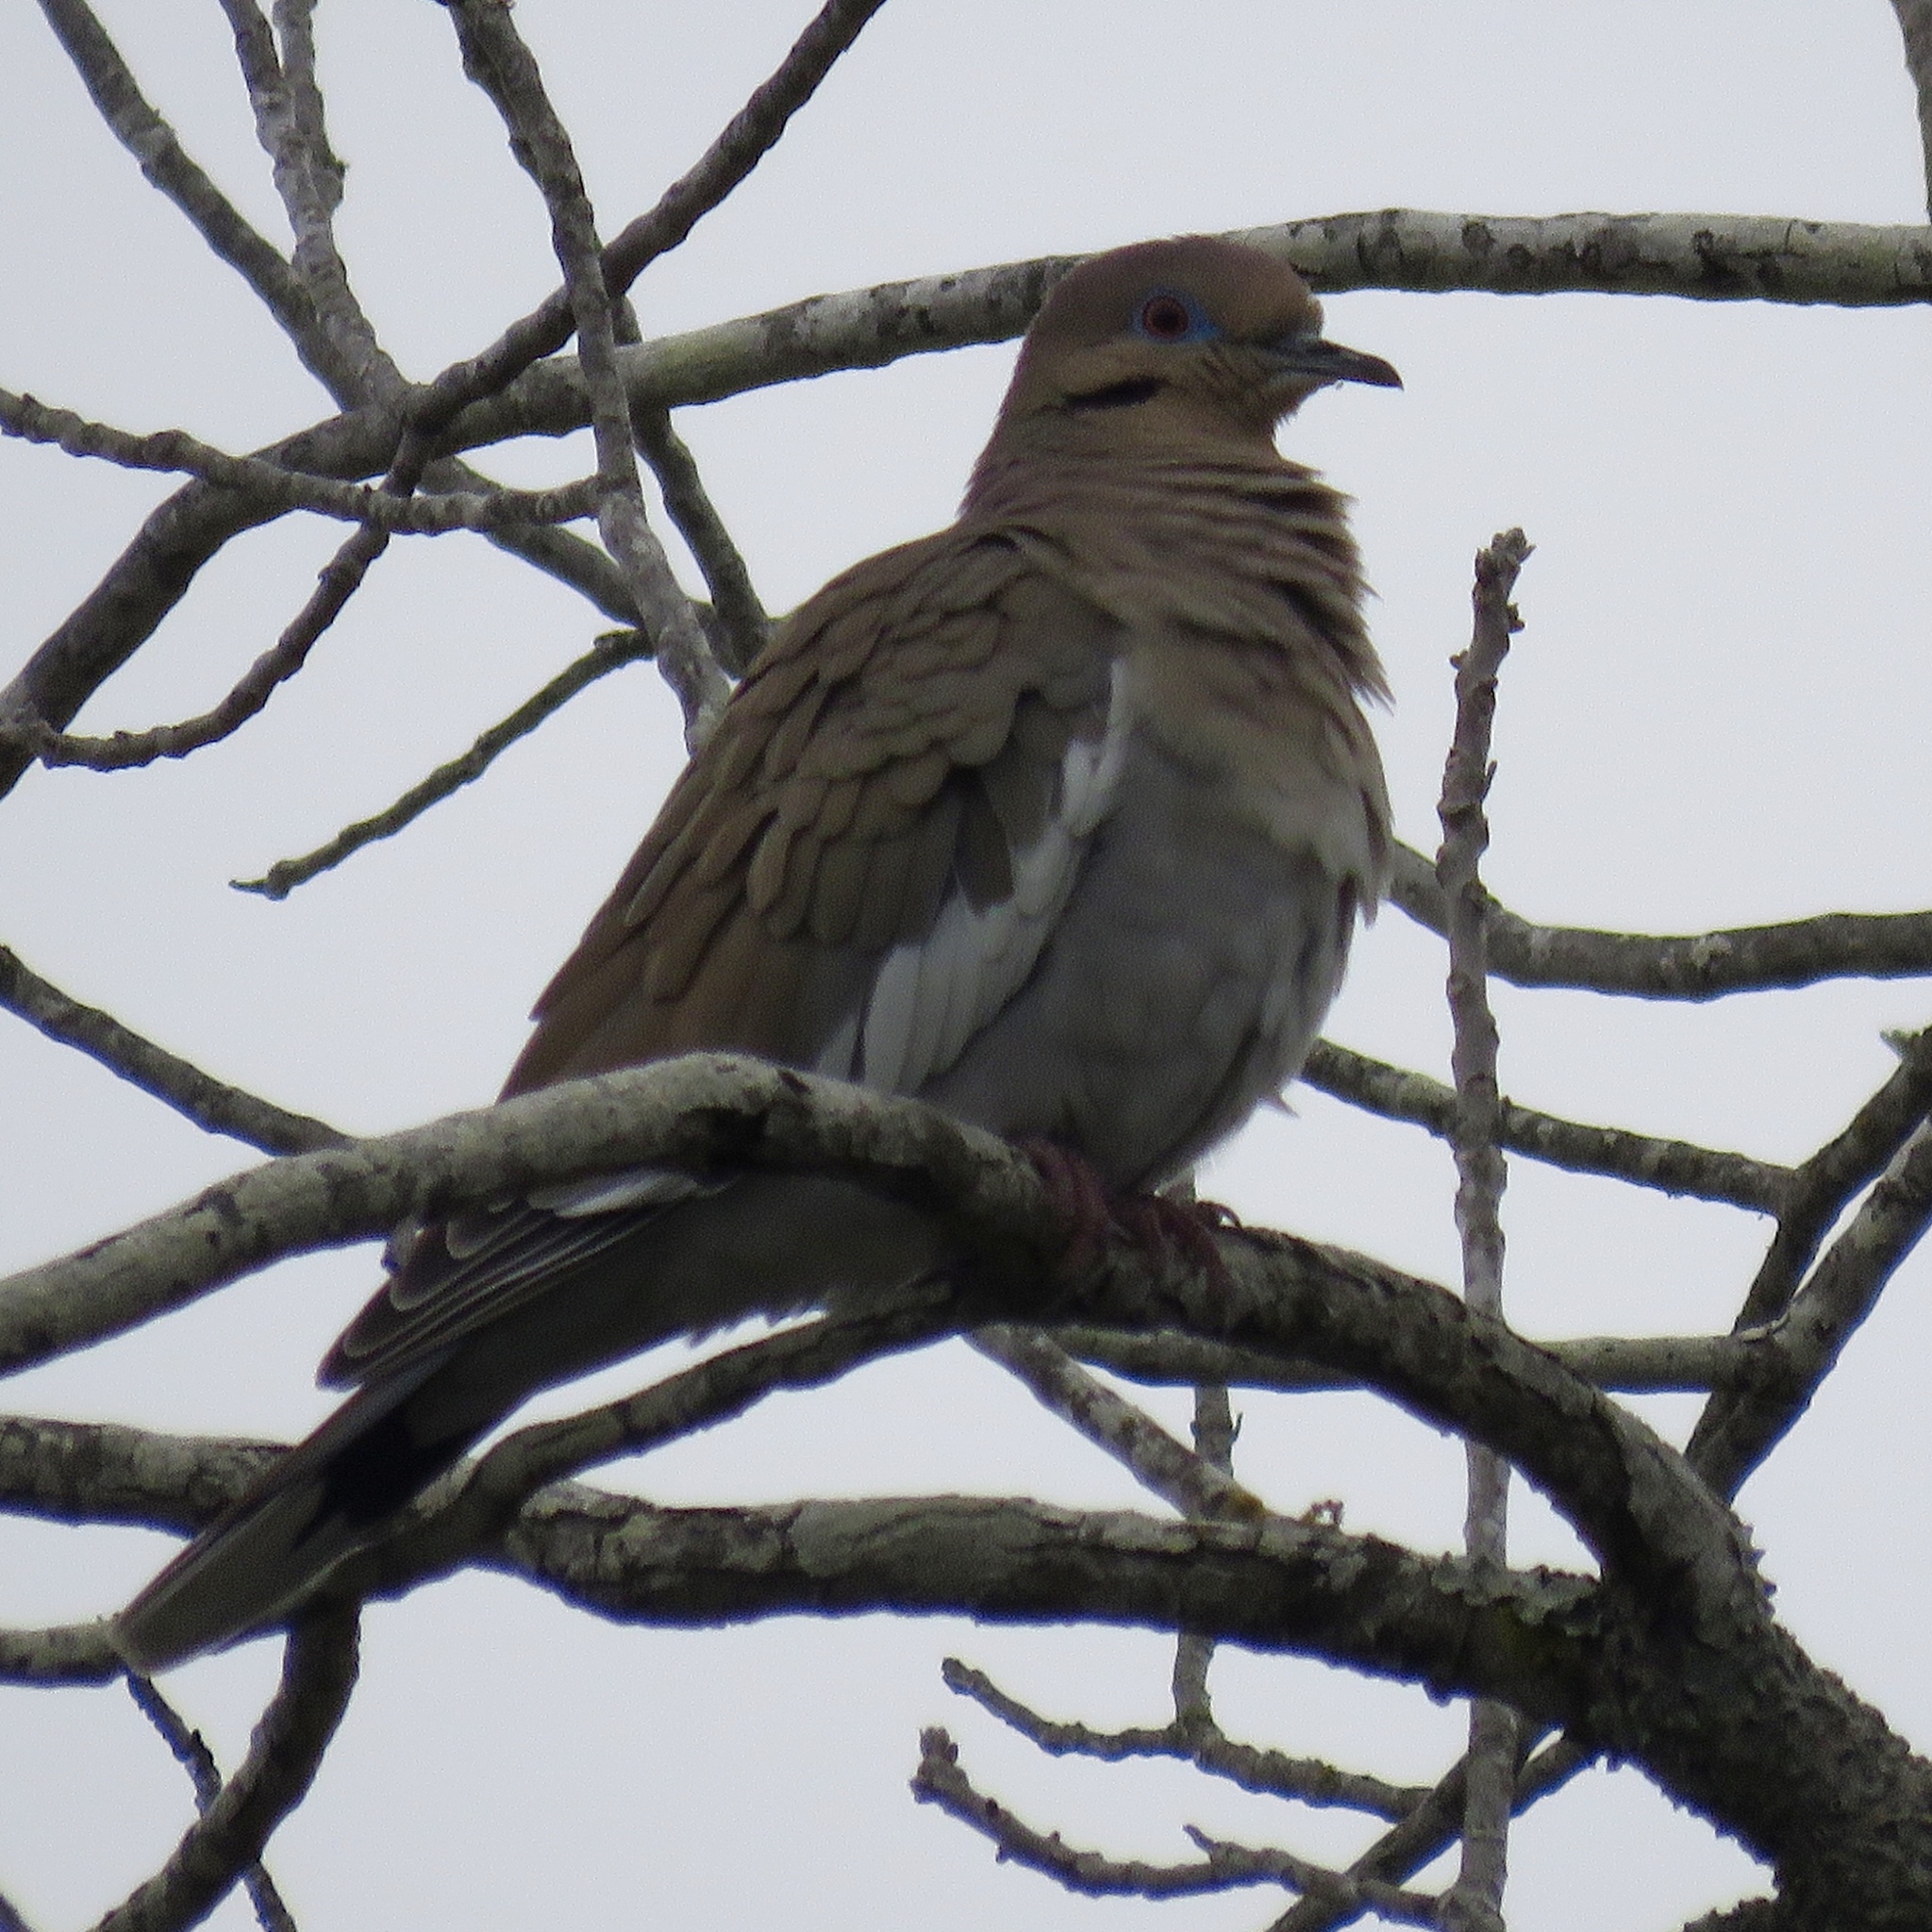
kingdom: Animalia
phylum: Chordata
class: Aves
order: Columbiformes
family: Columbidae
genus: Zenaida
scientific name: Zenaida asiatica
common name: White-winged dove
